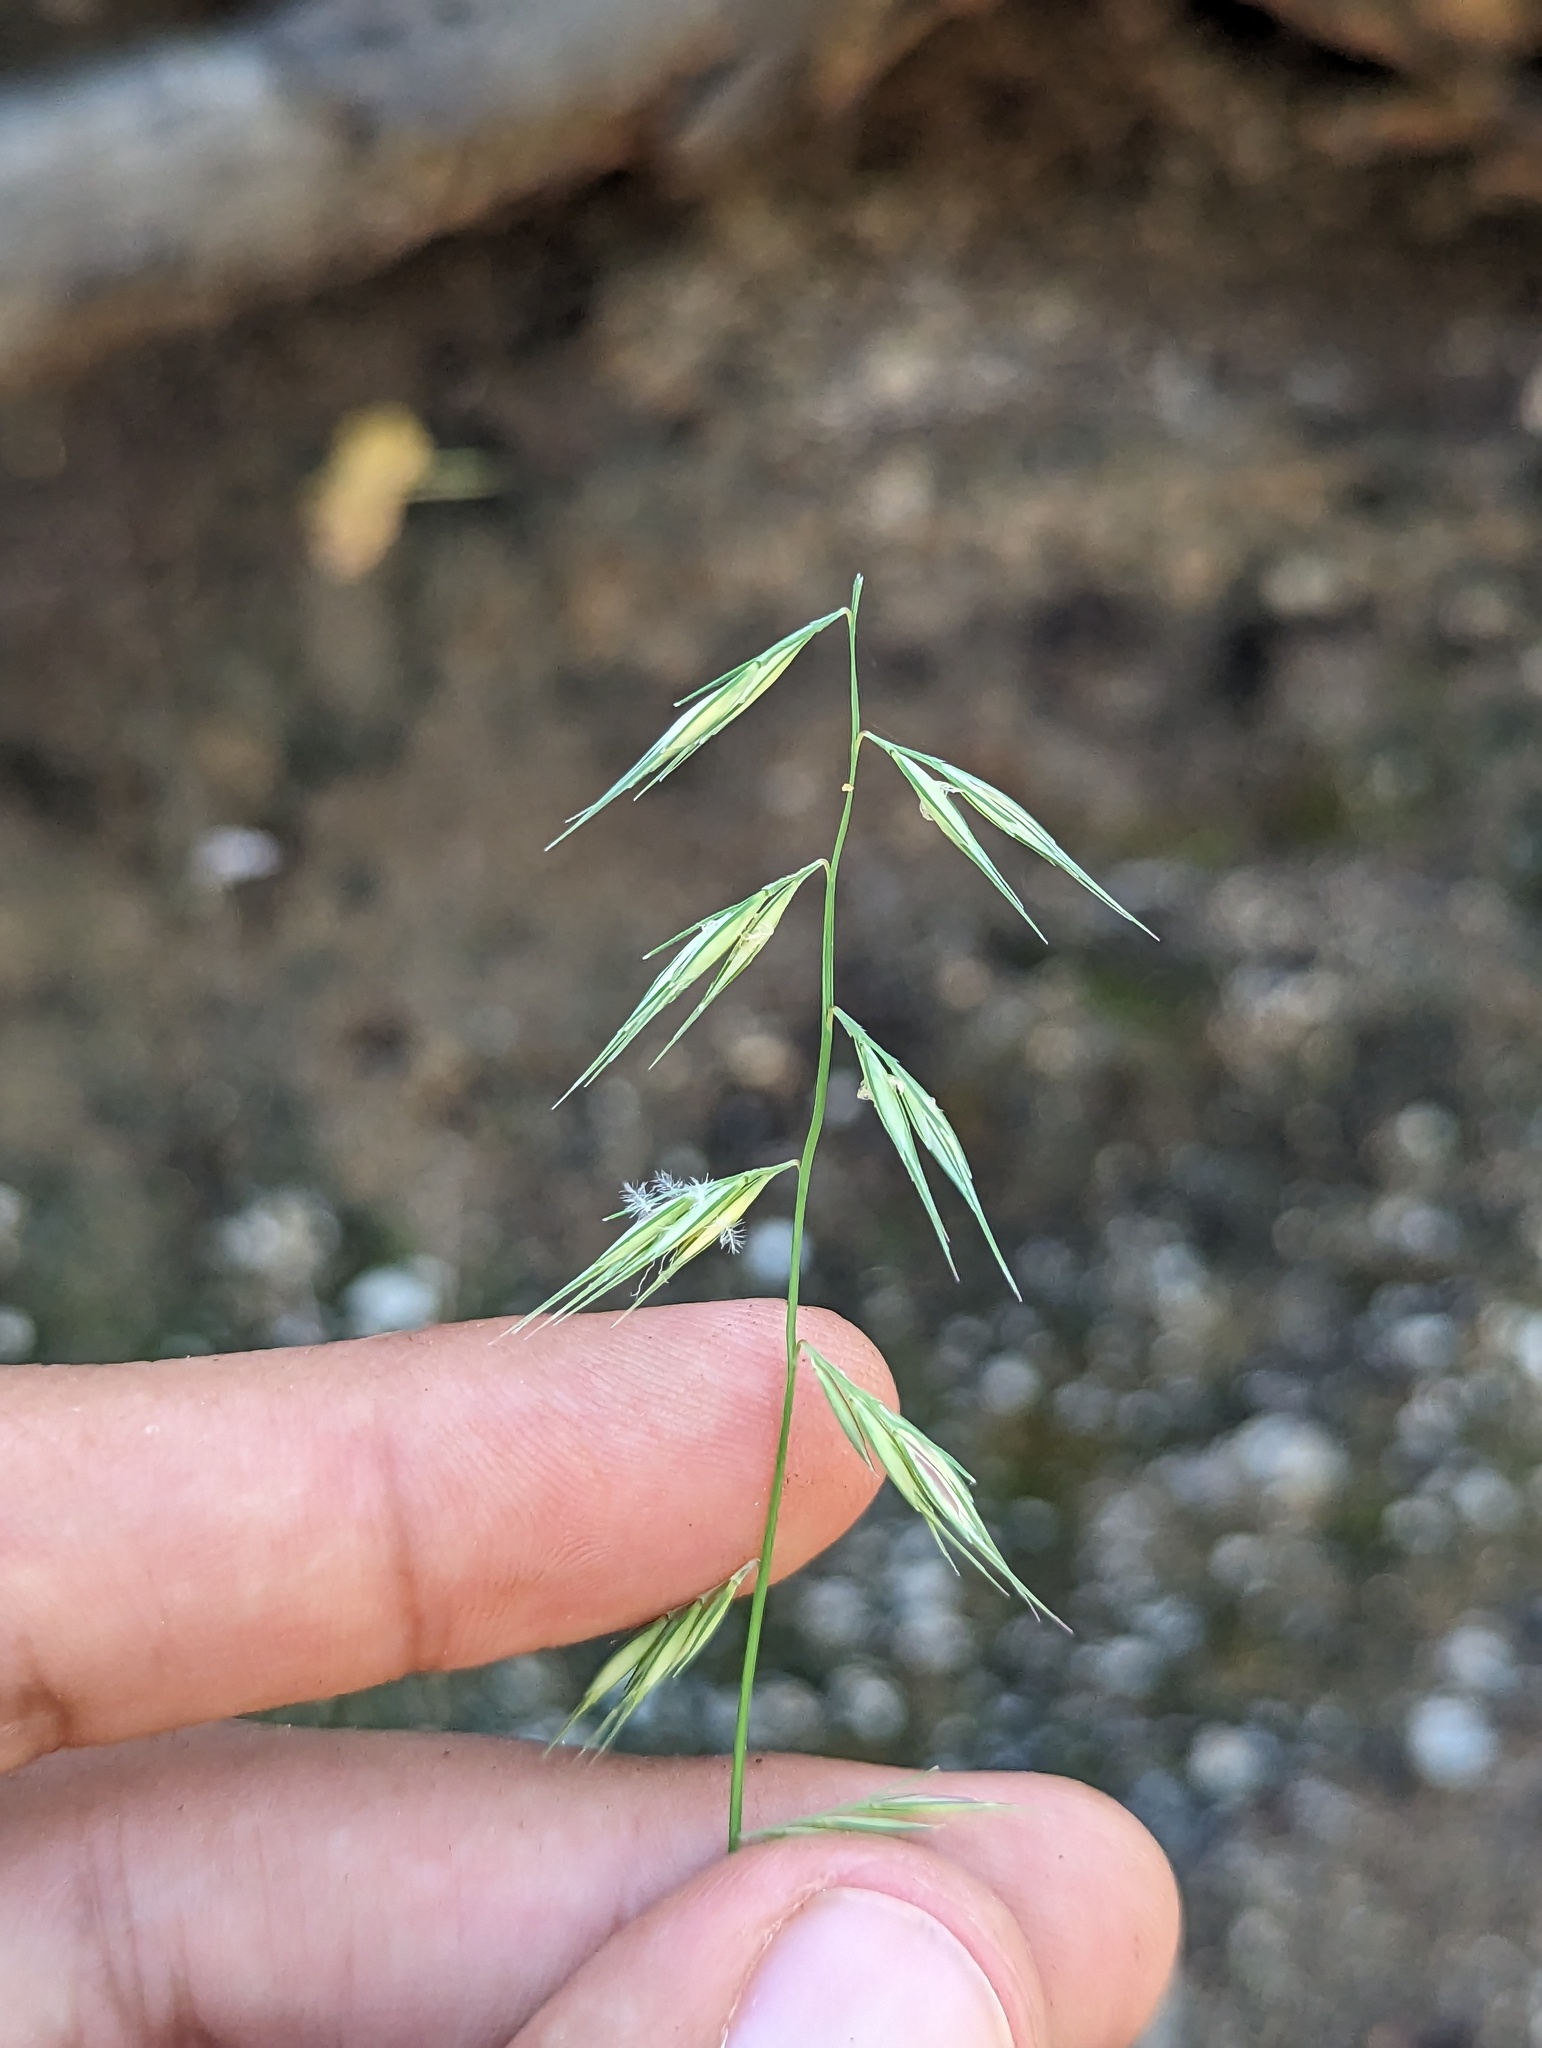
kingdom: Plantae
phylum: Tracheophyta
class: Liliopsida
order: Poales
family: Poaceae
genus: Bouteloua
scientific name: Bouteloua repens
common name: Slender grama
